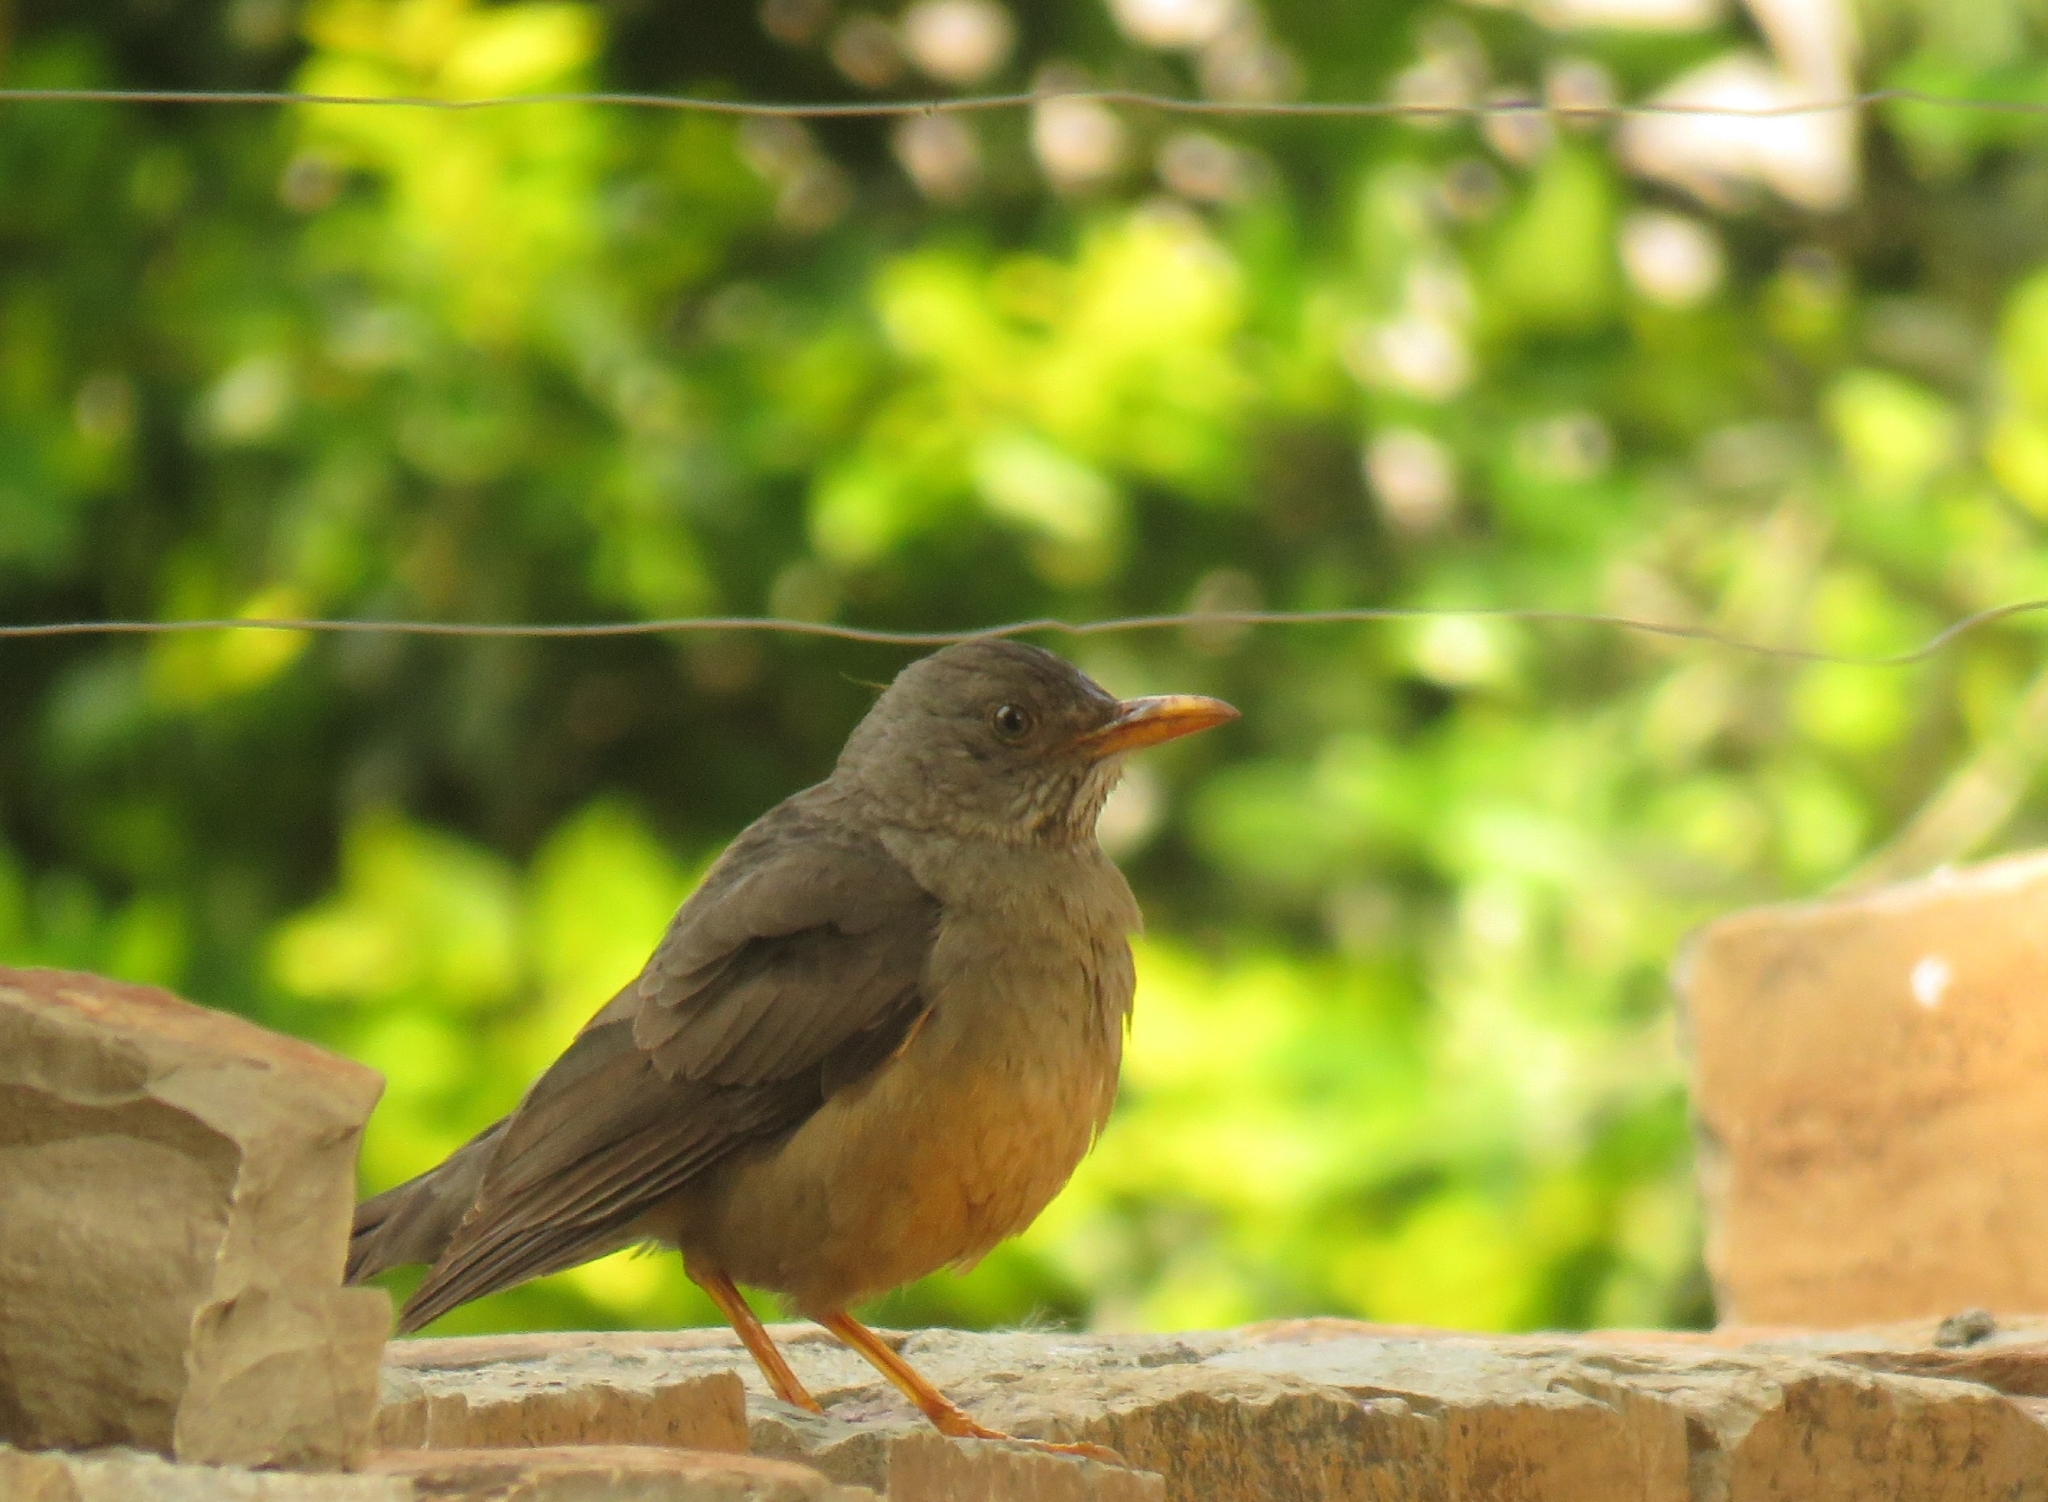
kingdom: Animalia
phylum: Chordata
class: Aves
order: Passeriformes
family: Turdidae
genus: Turdus
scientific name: Turdus olivaceus
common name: Olive thrush
